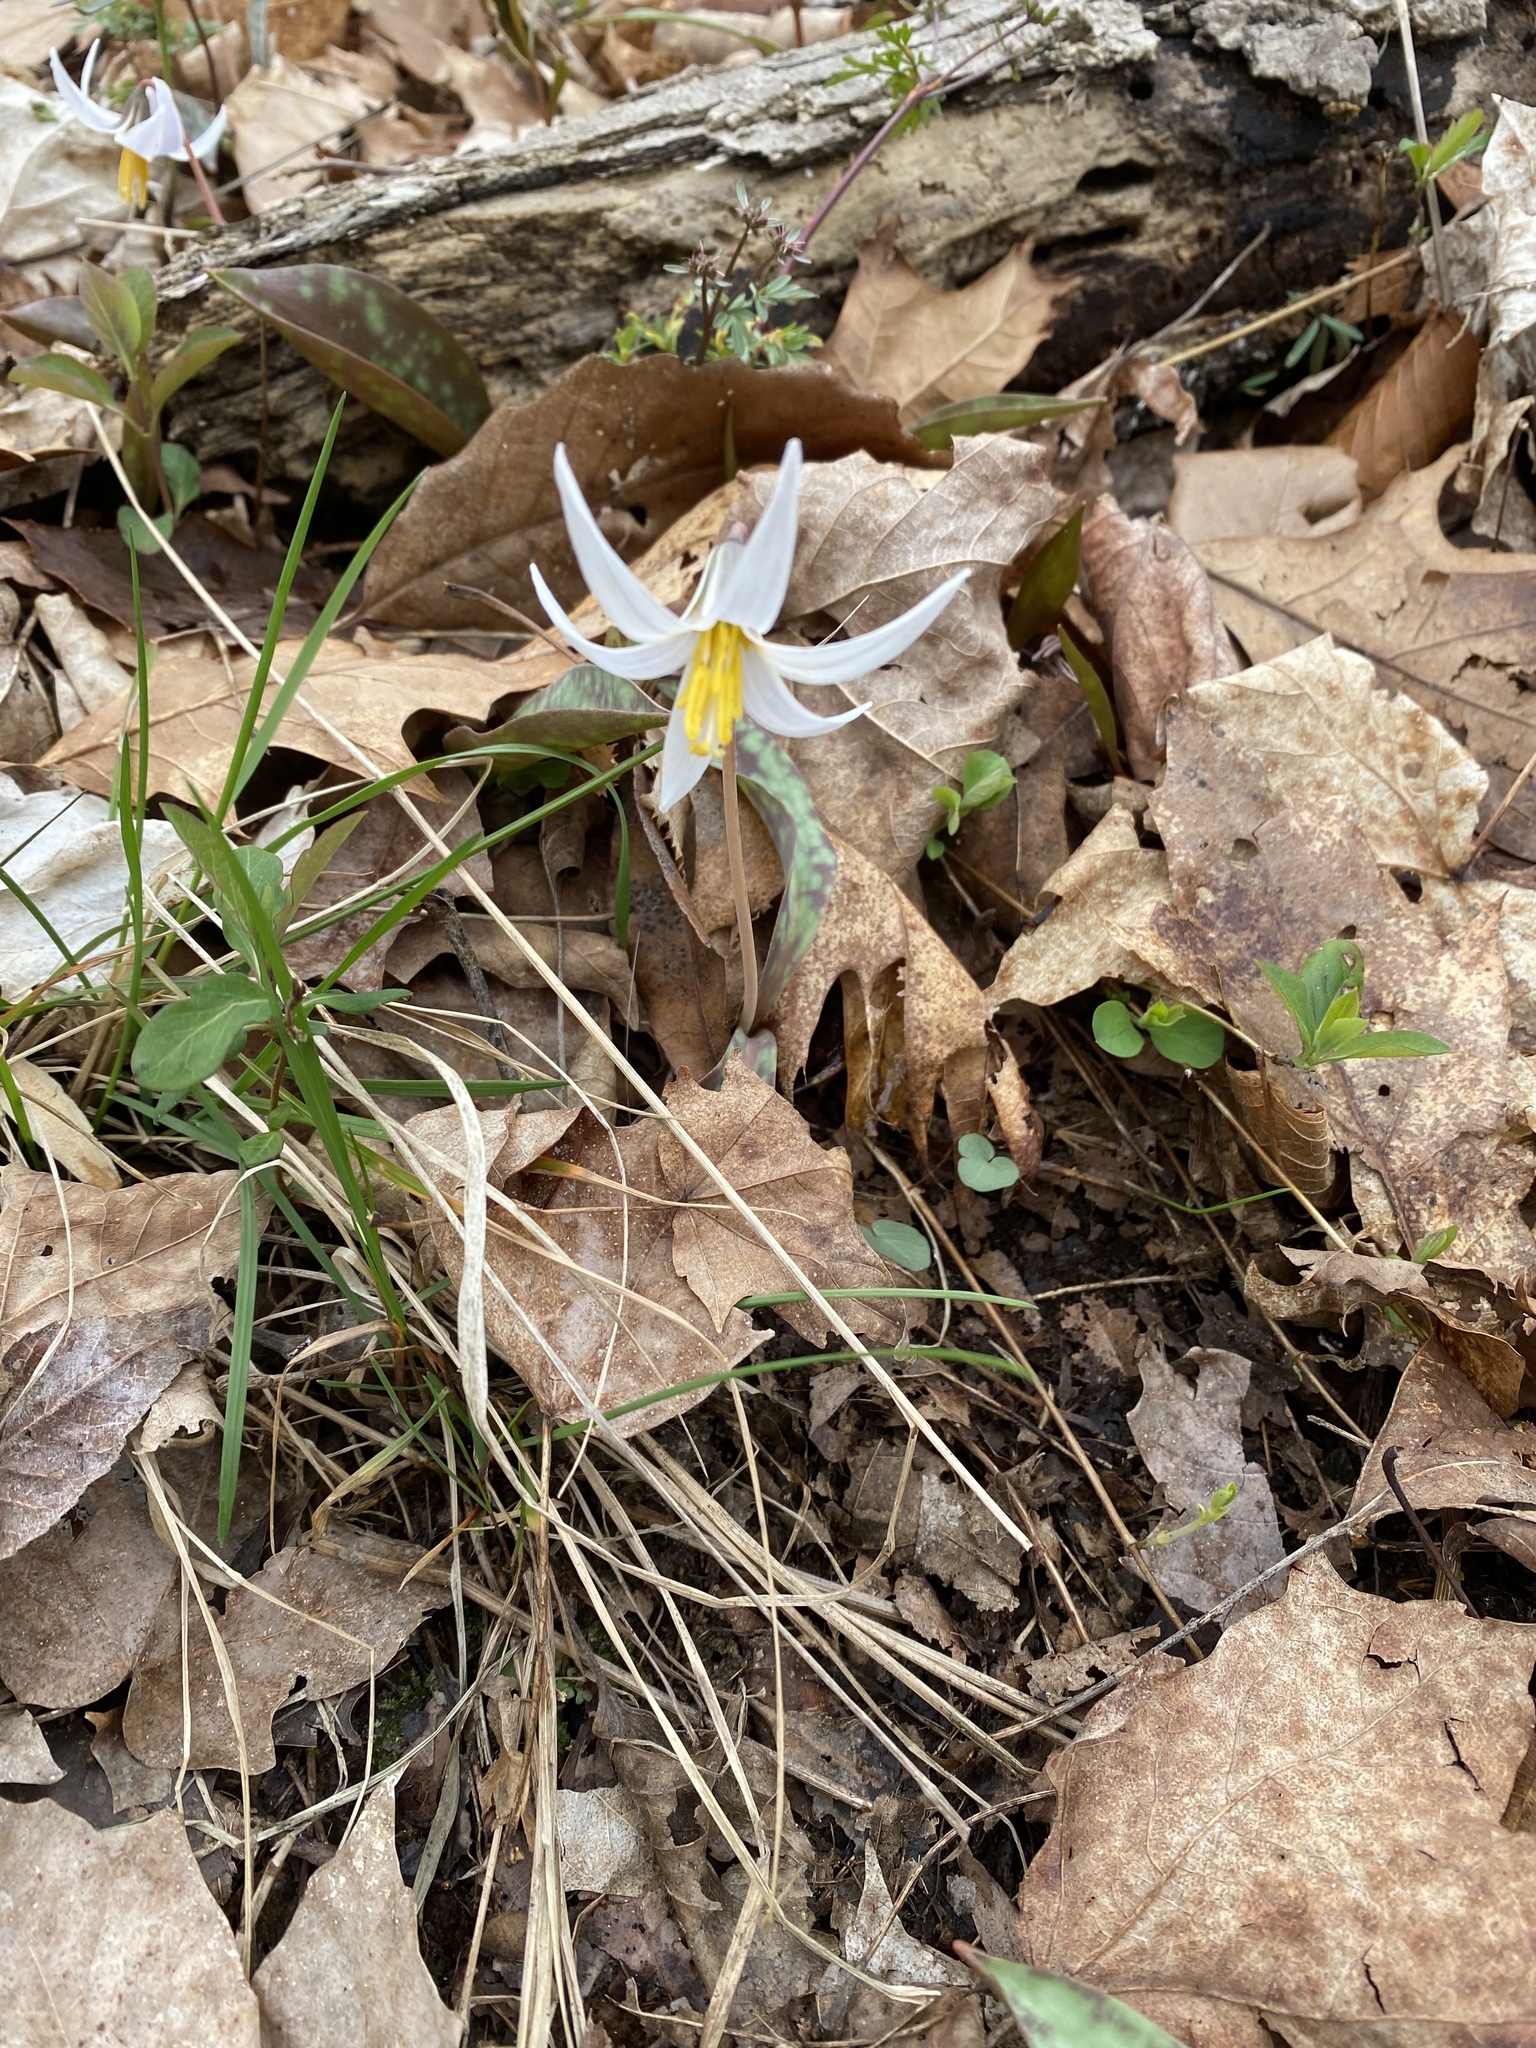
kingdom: Plantae
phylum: Tracheophyta
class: Liliopsida
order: Liliales
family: Liliaceae
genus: Erythronium
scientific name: Erythronium albidum
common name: White trout-lily
